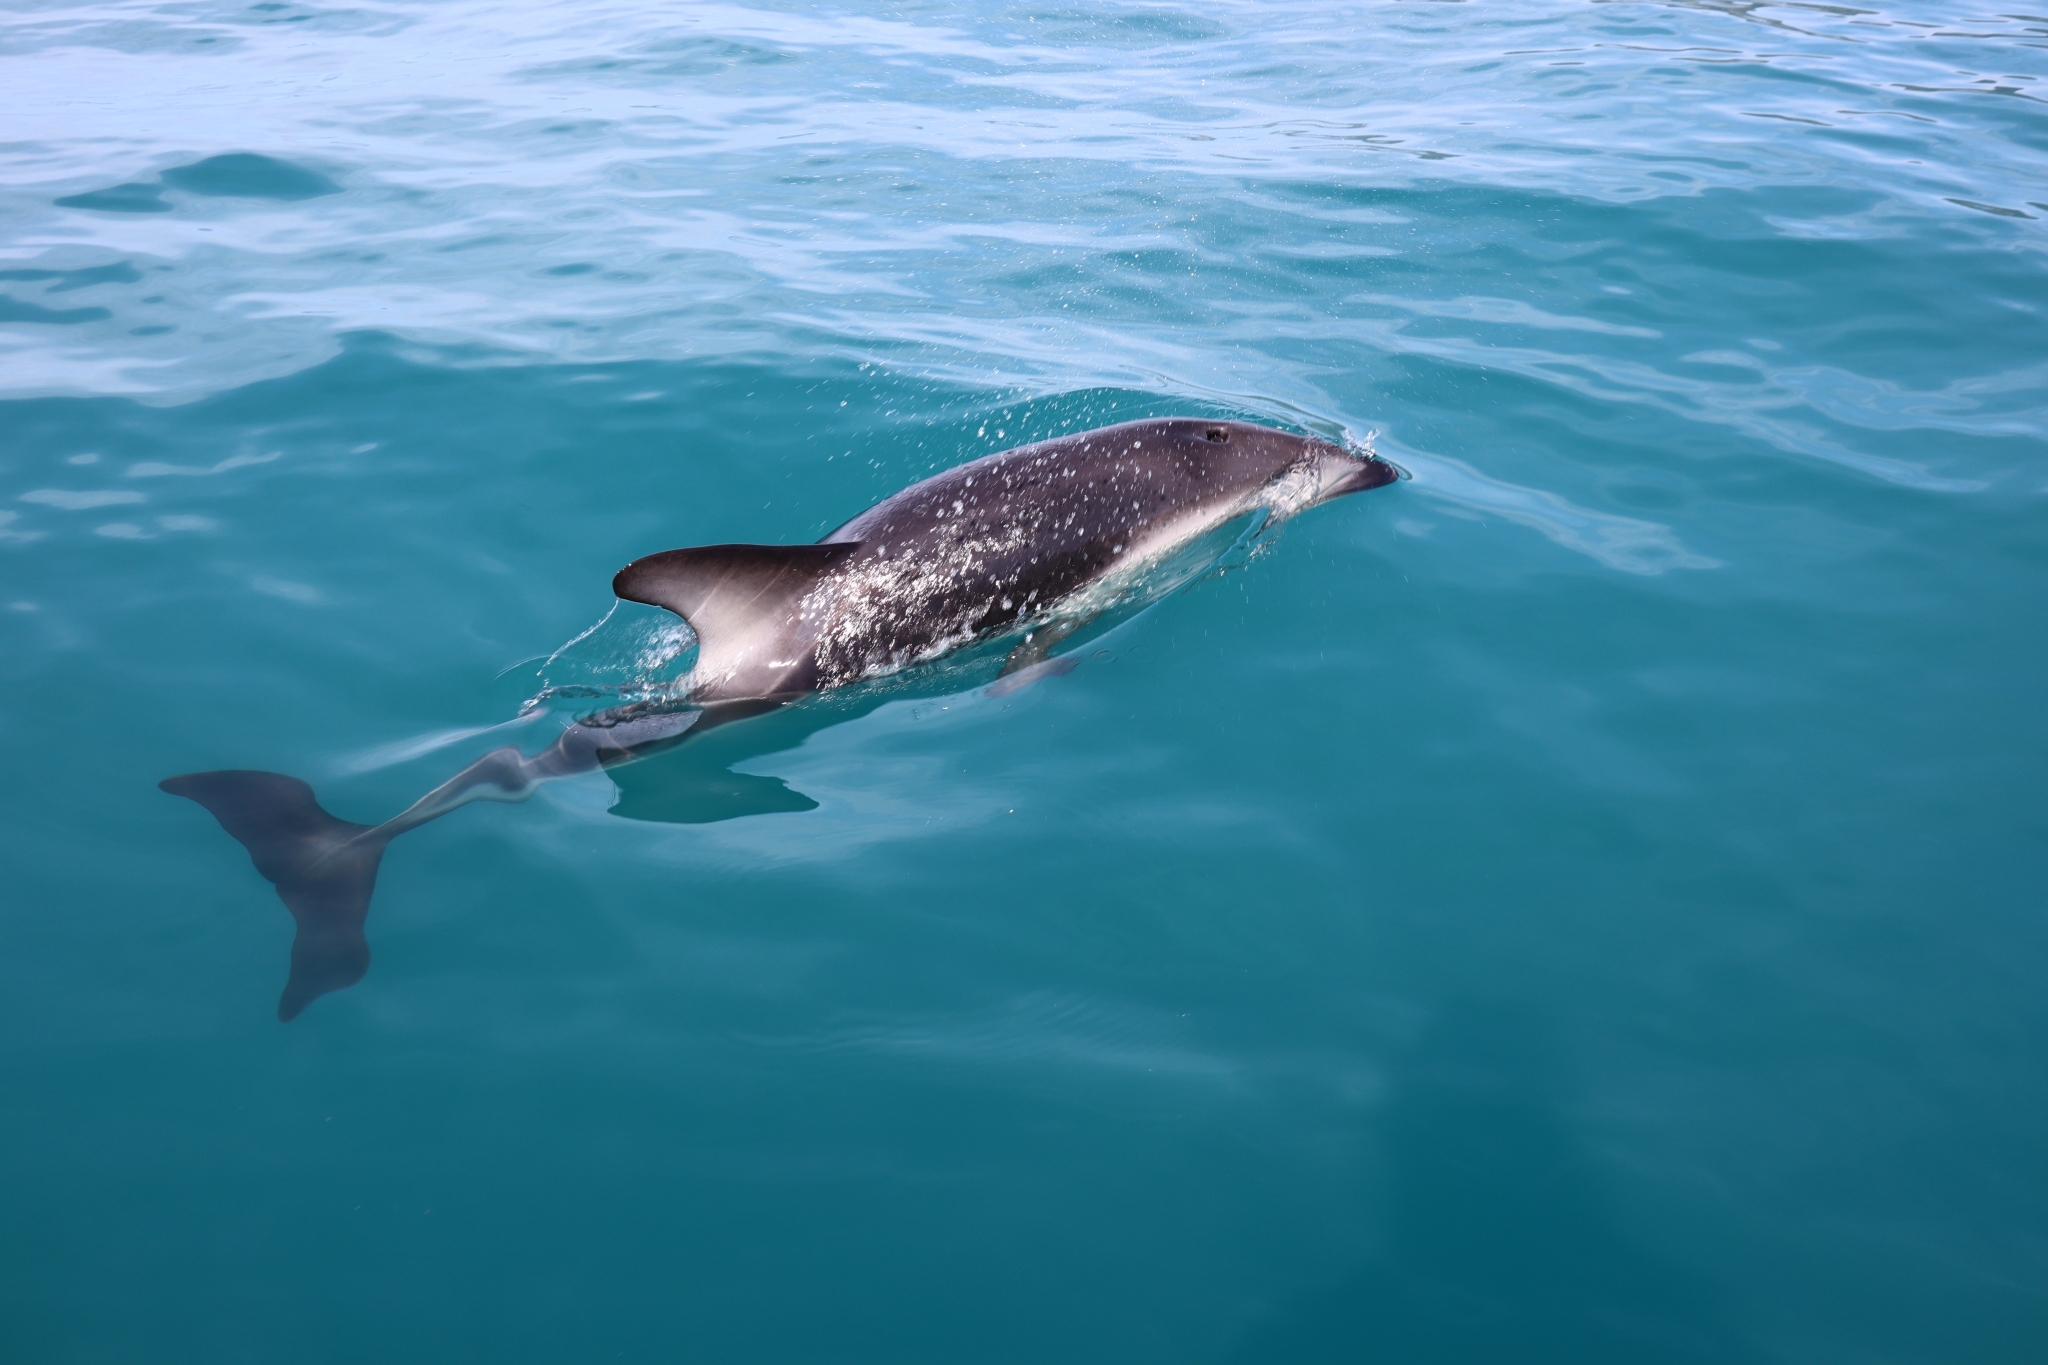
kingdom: Animalia
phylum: Chordata
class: Mammalia
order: Cetacea
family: Delphinidae
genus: Lagenorhynchus
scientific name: Lagenorhynchus obscurus
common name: Dusky dolphin
